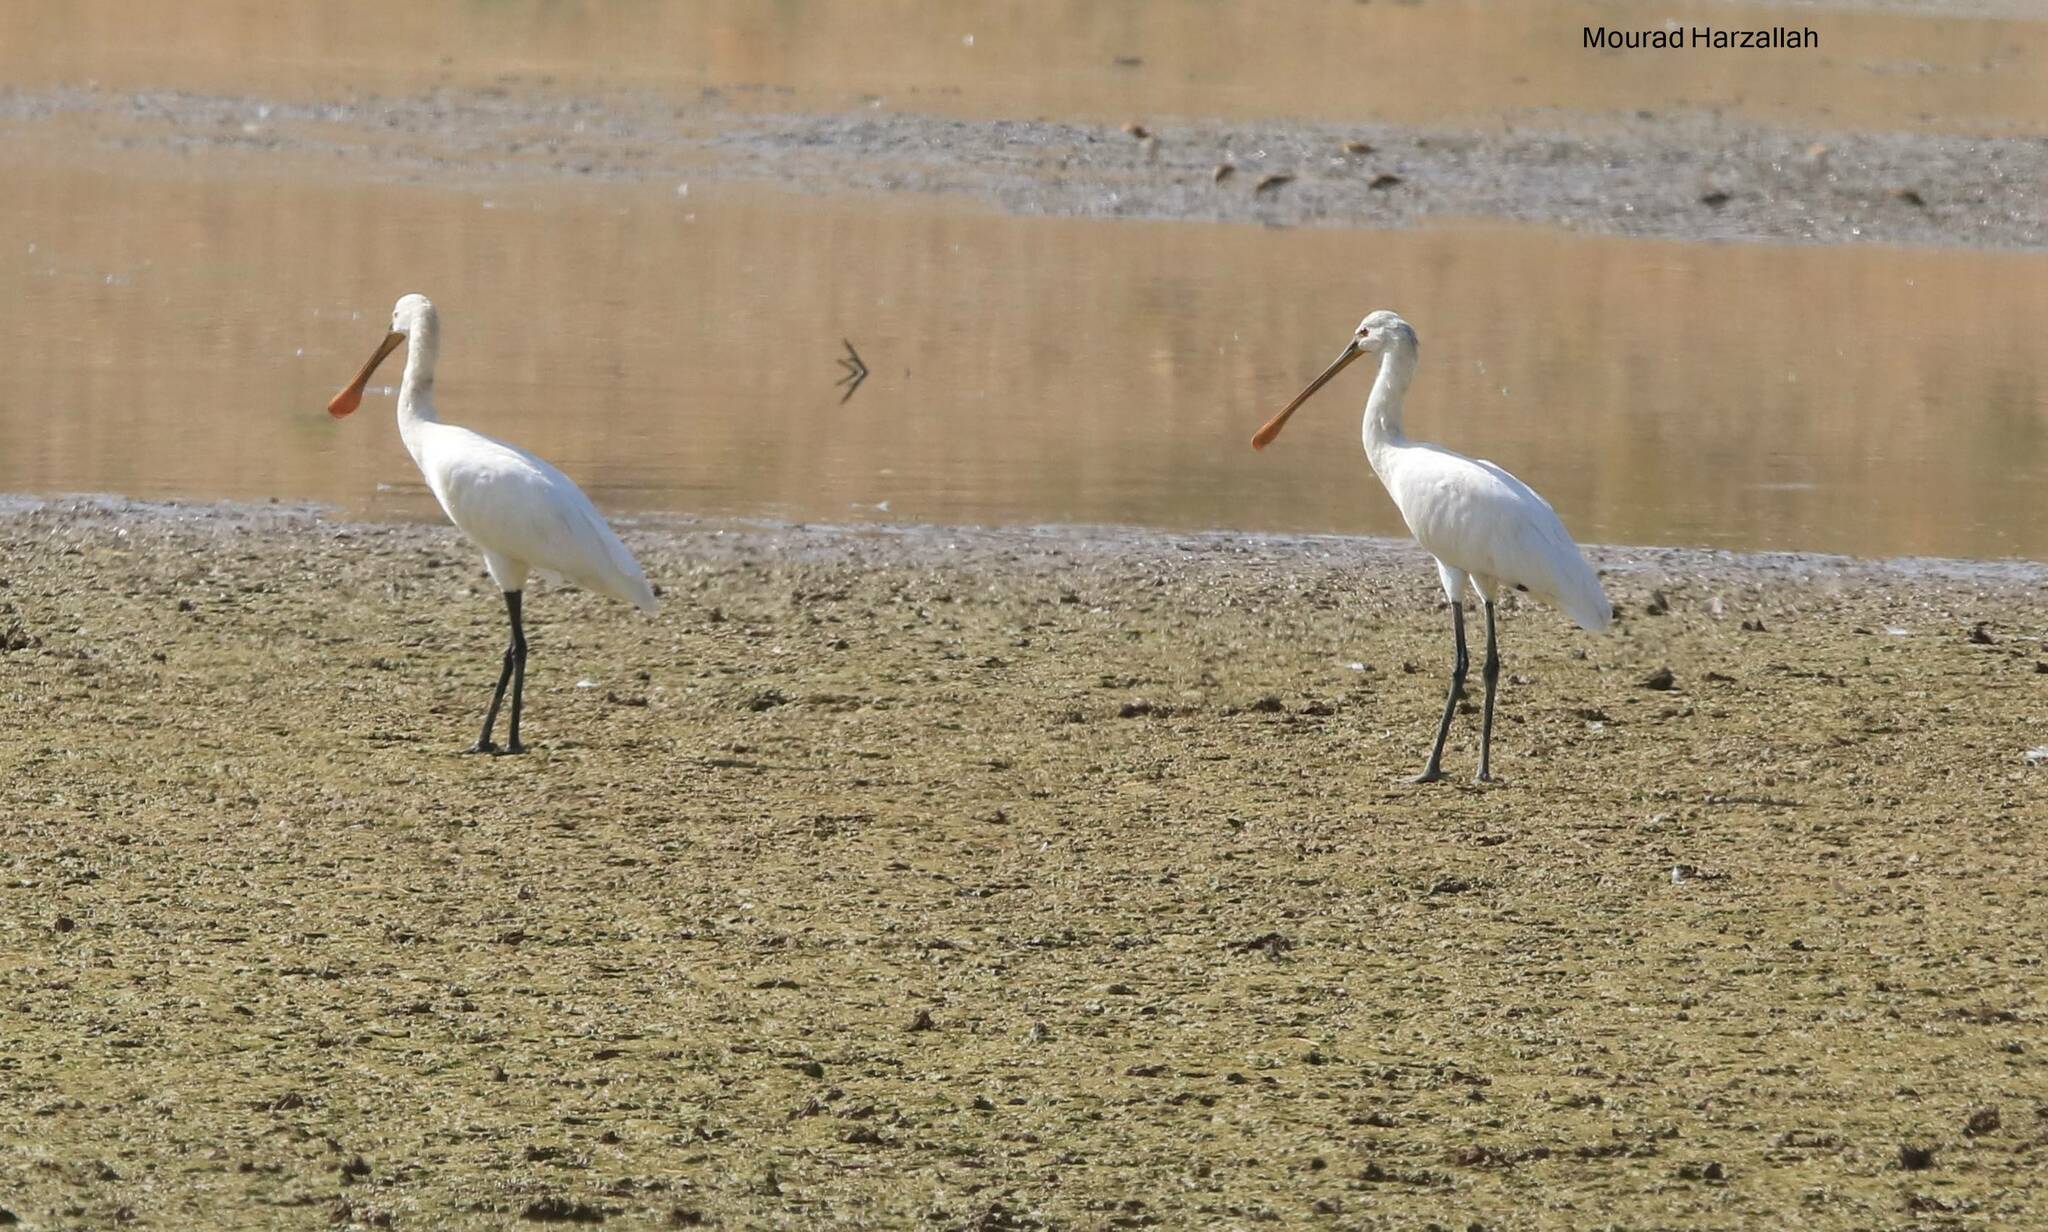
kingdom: Animalia
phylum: Chordata
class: Aves
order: Pelecaniformes
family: Threskiornithidae
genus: Platalea
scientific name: Platalea leucorodia
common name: Eurasian spoonbill
